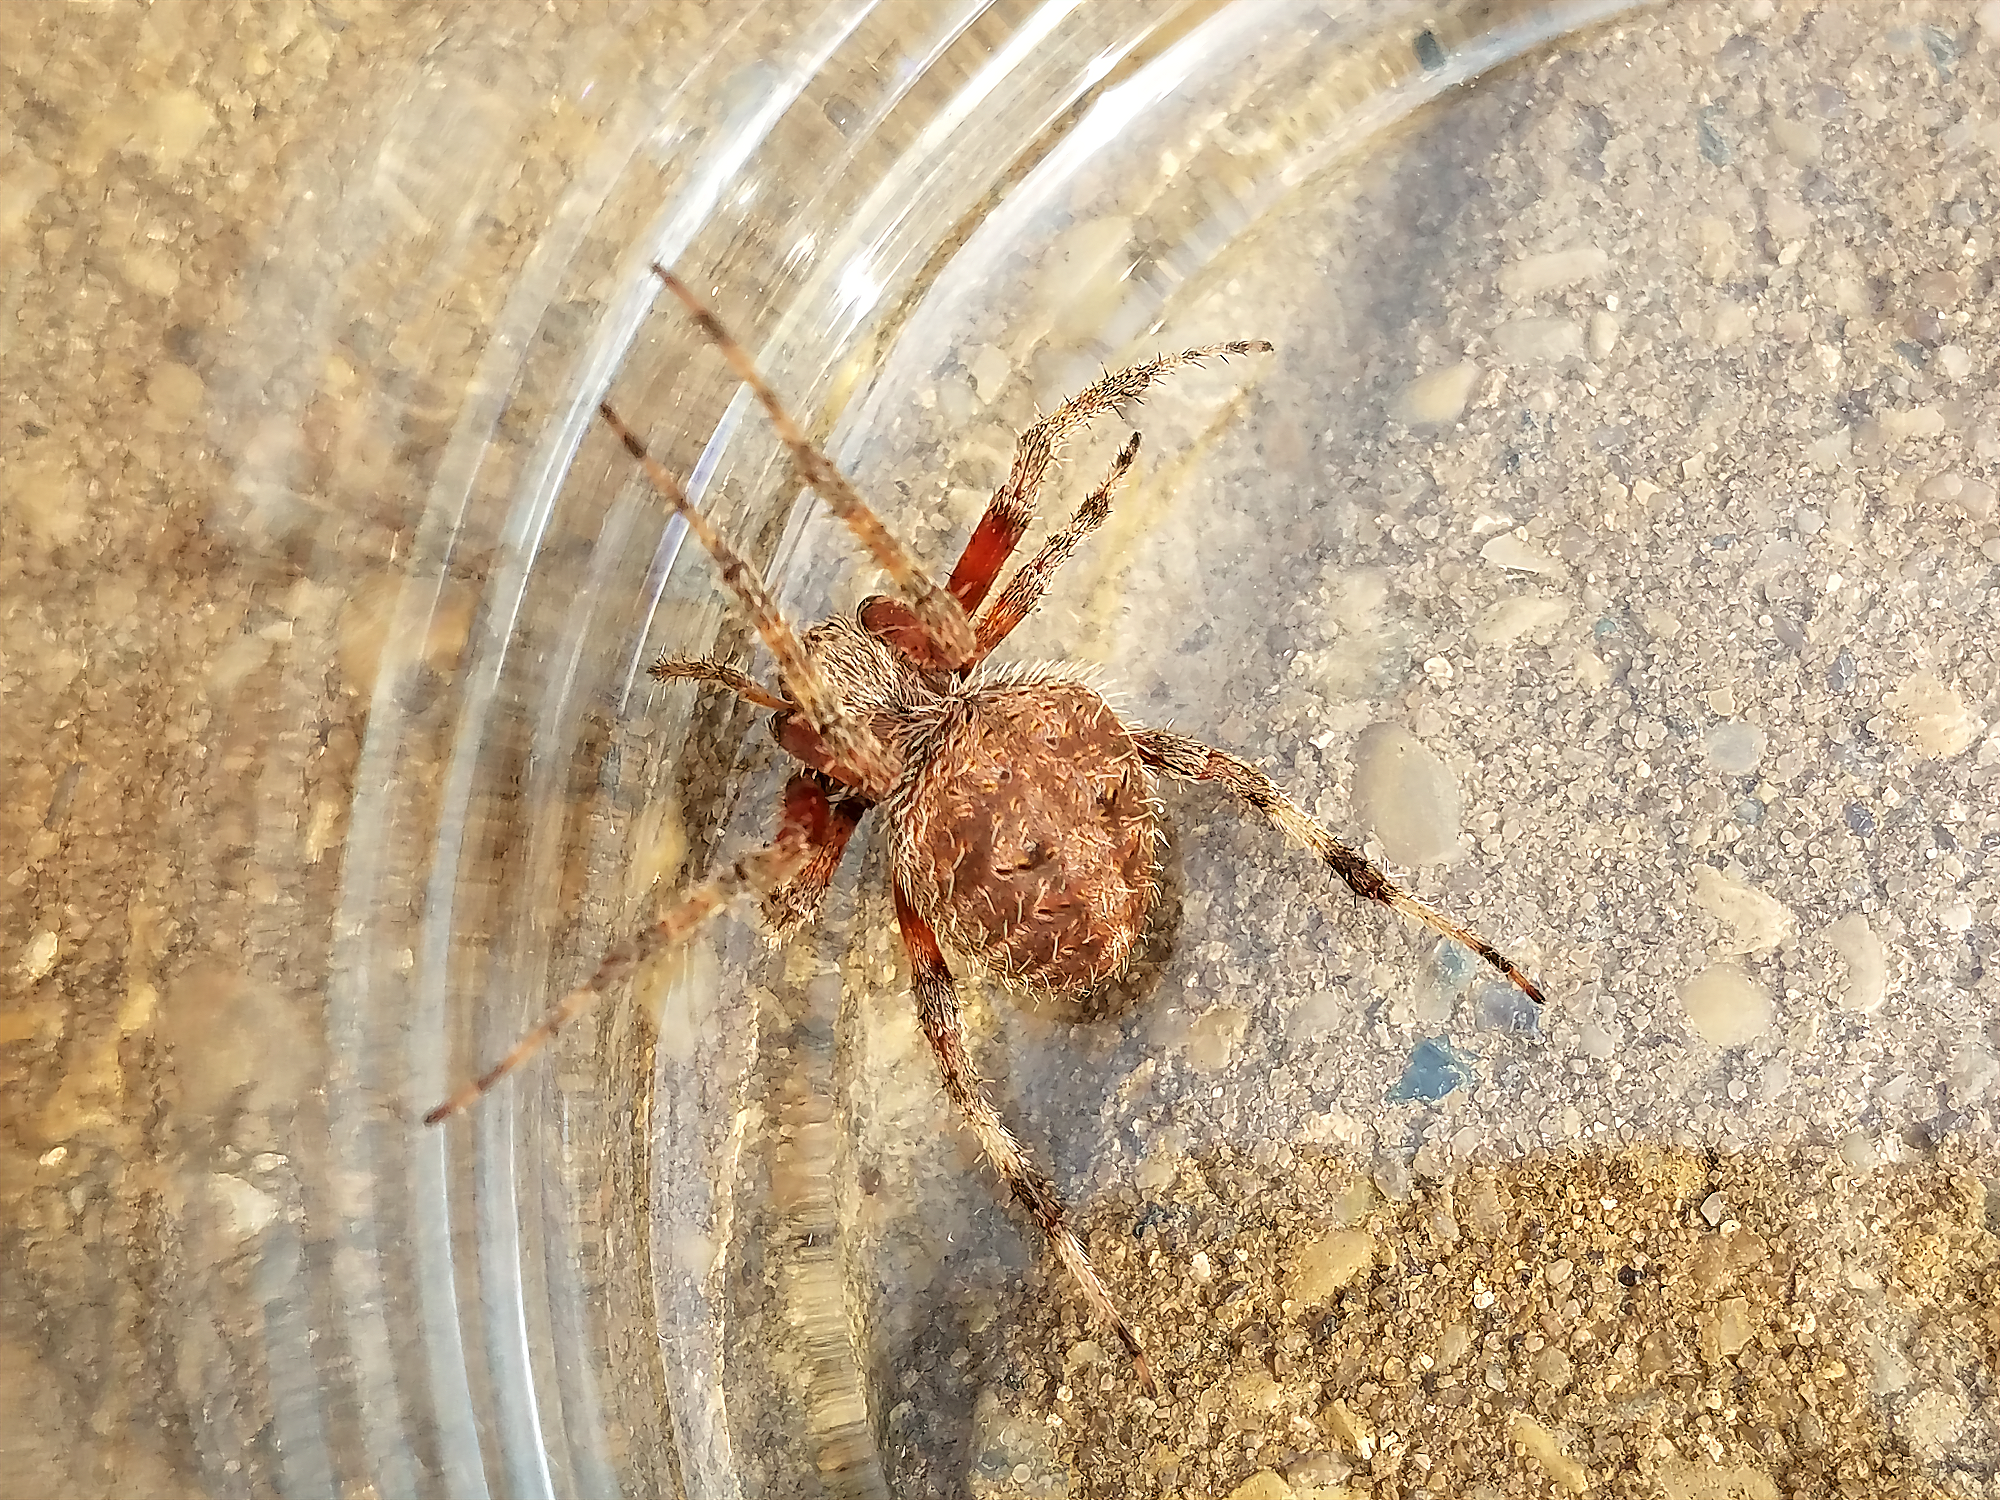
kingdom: Animalia
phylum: Arthropoda
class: Arachnida
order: Araneae
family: Araneidae
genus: Neoscona
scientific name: Neoscona crucifera
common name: Spotted orbweaver
